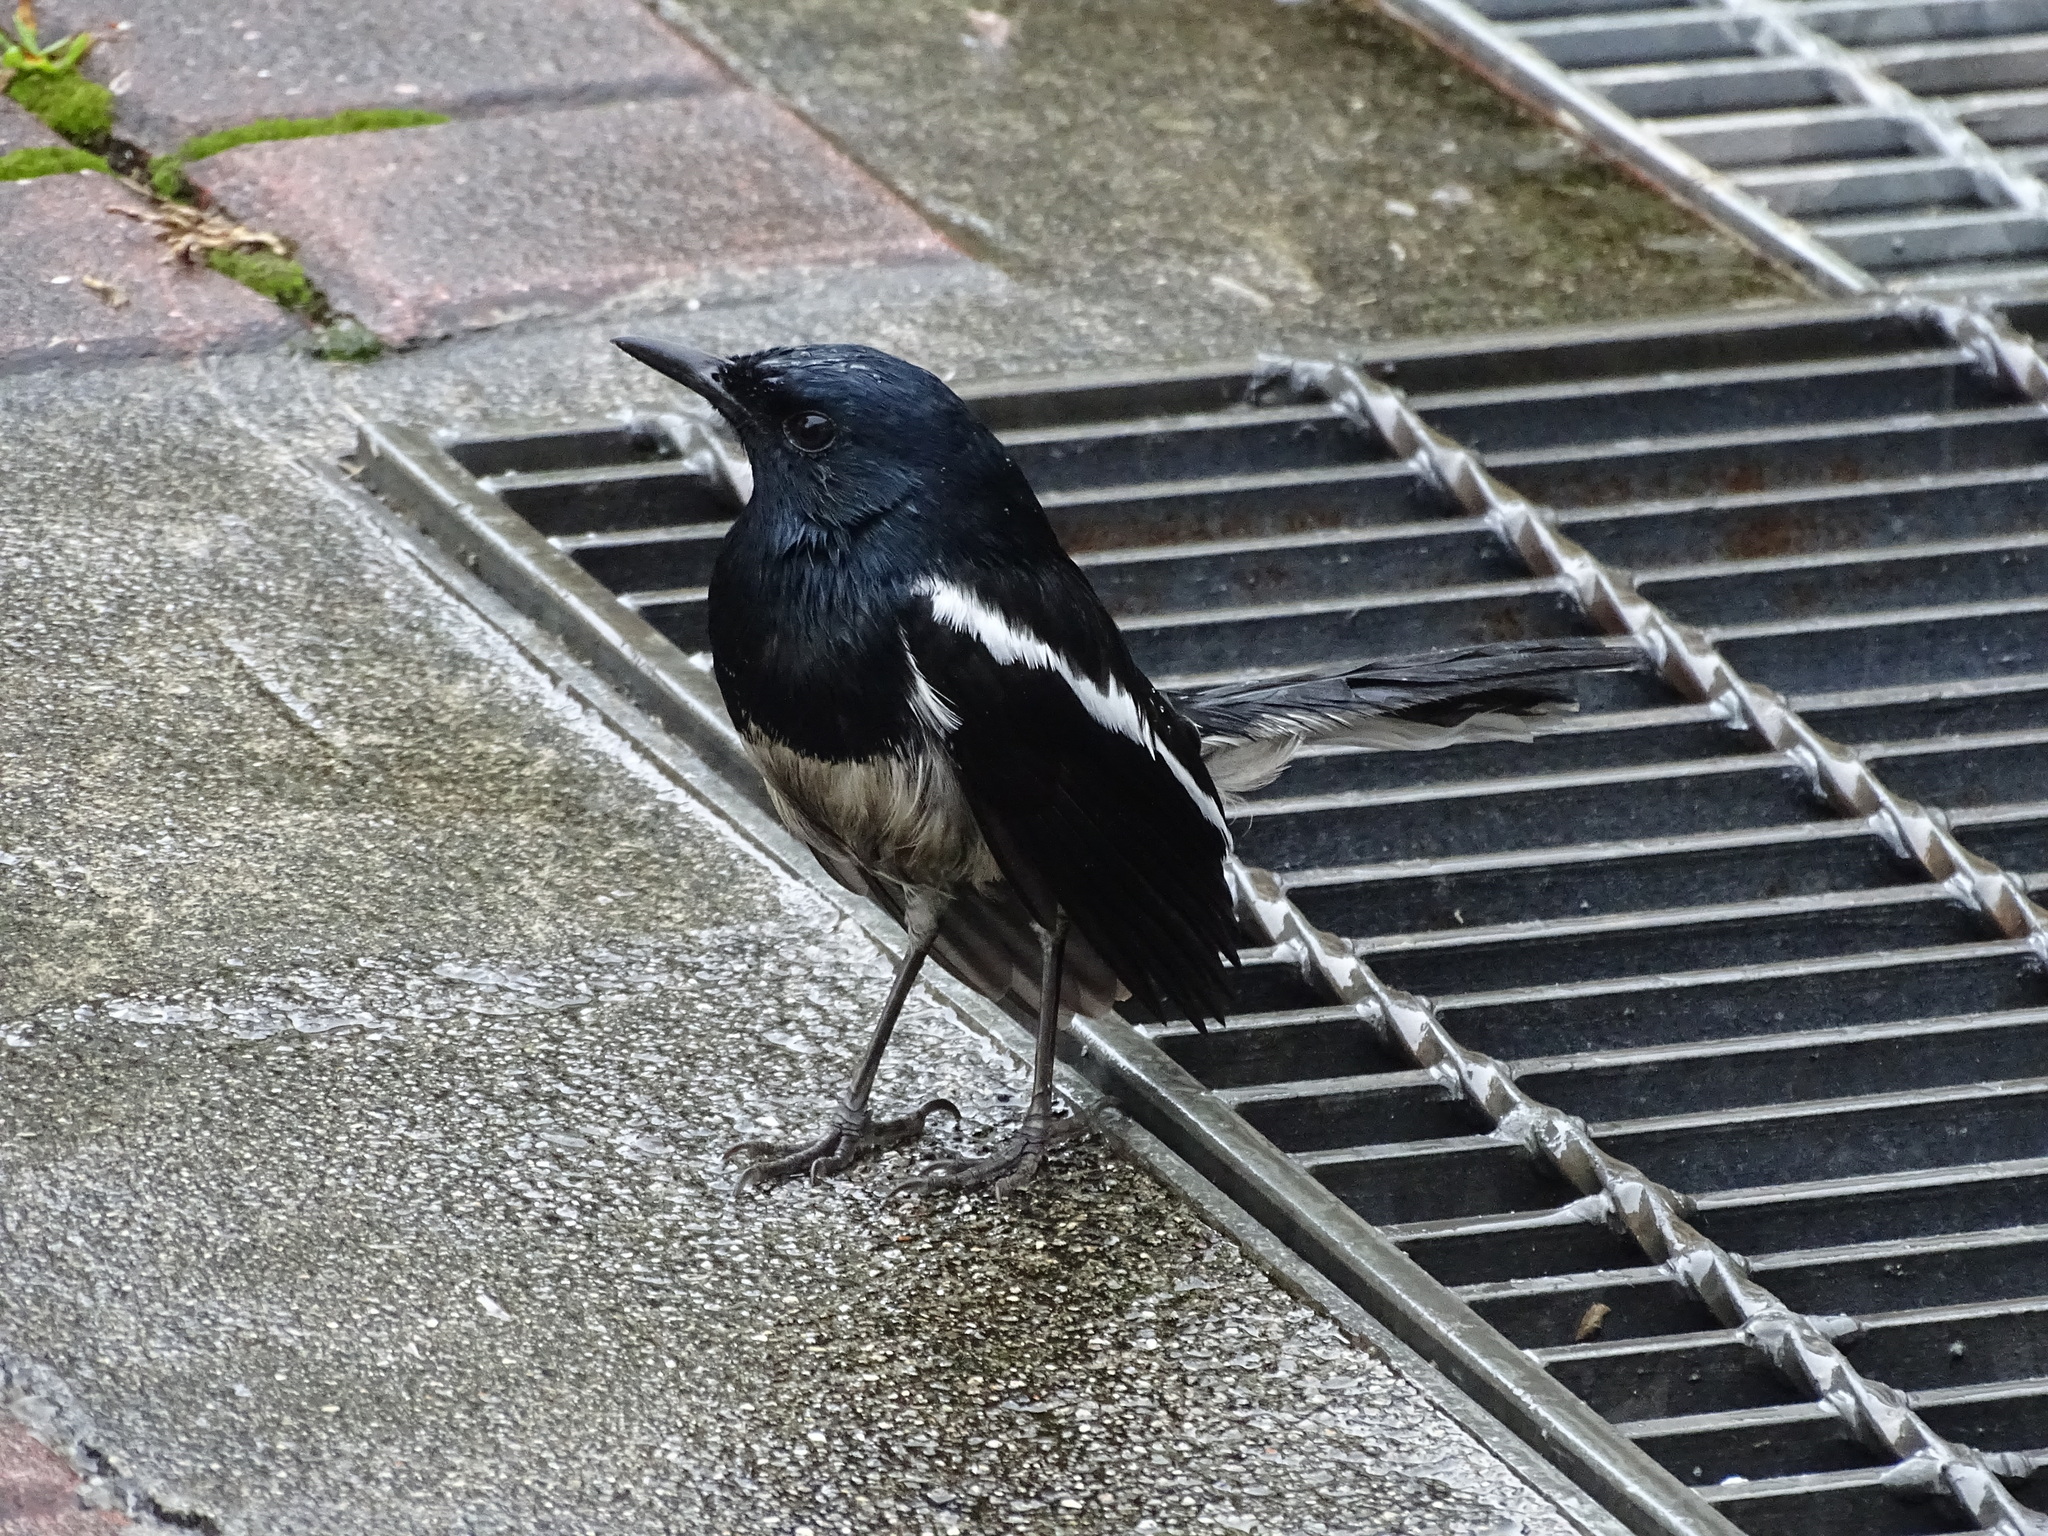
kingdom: Animalia
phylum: Chordata
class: Aves
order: Passeriformes
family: Muscicapidae
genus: Copsychus
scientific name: Copsychus saularis
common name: Oriental magpie-robin
